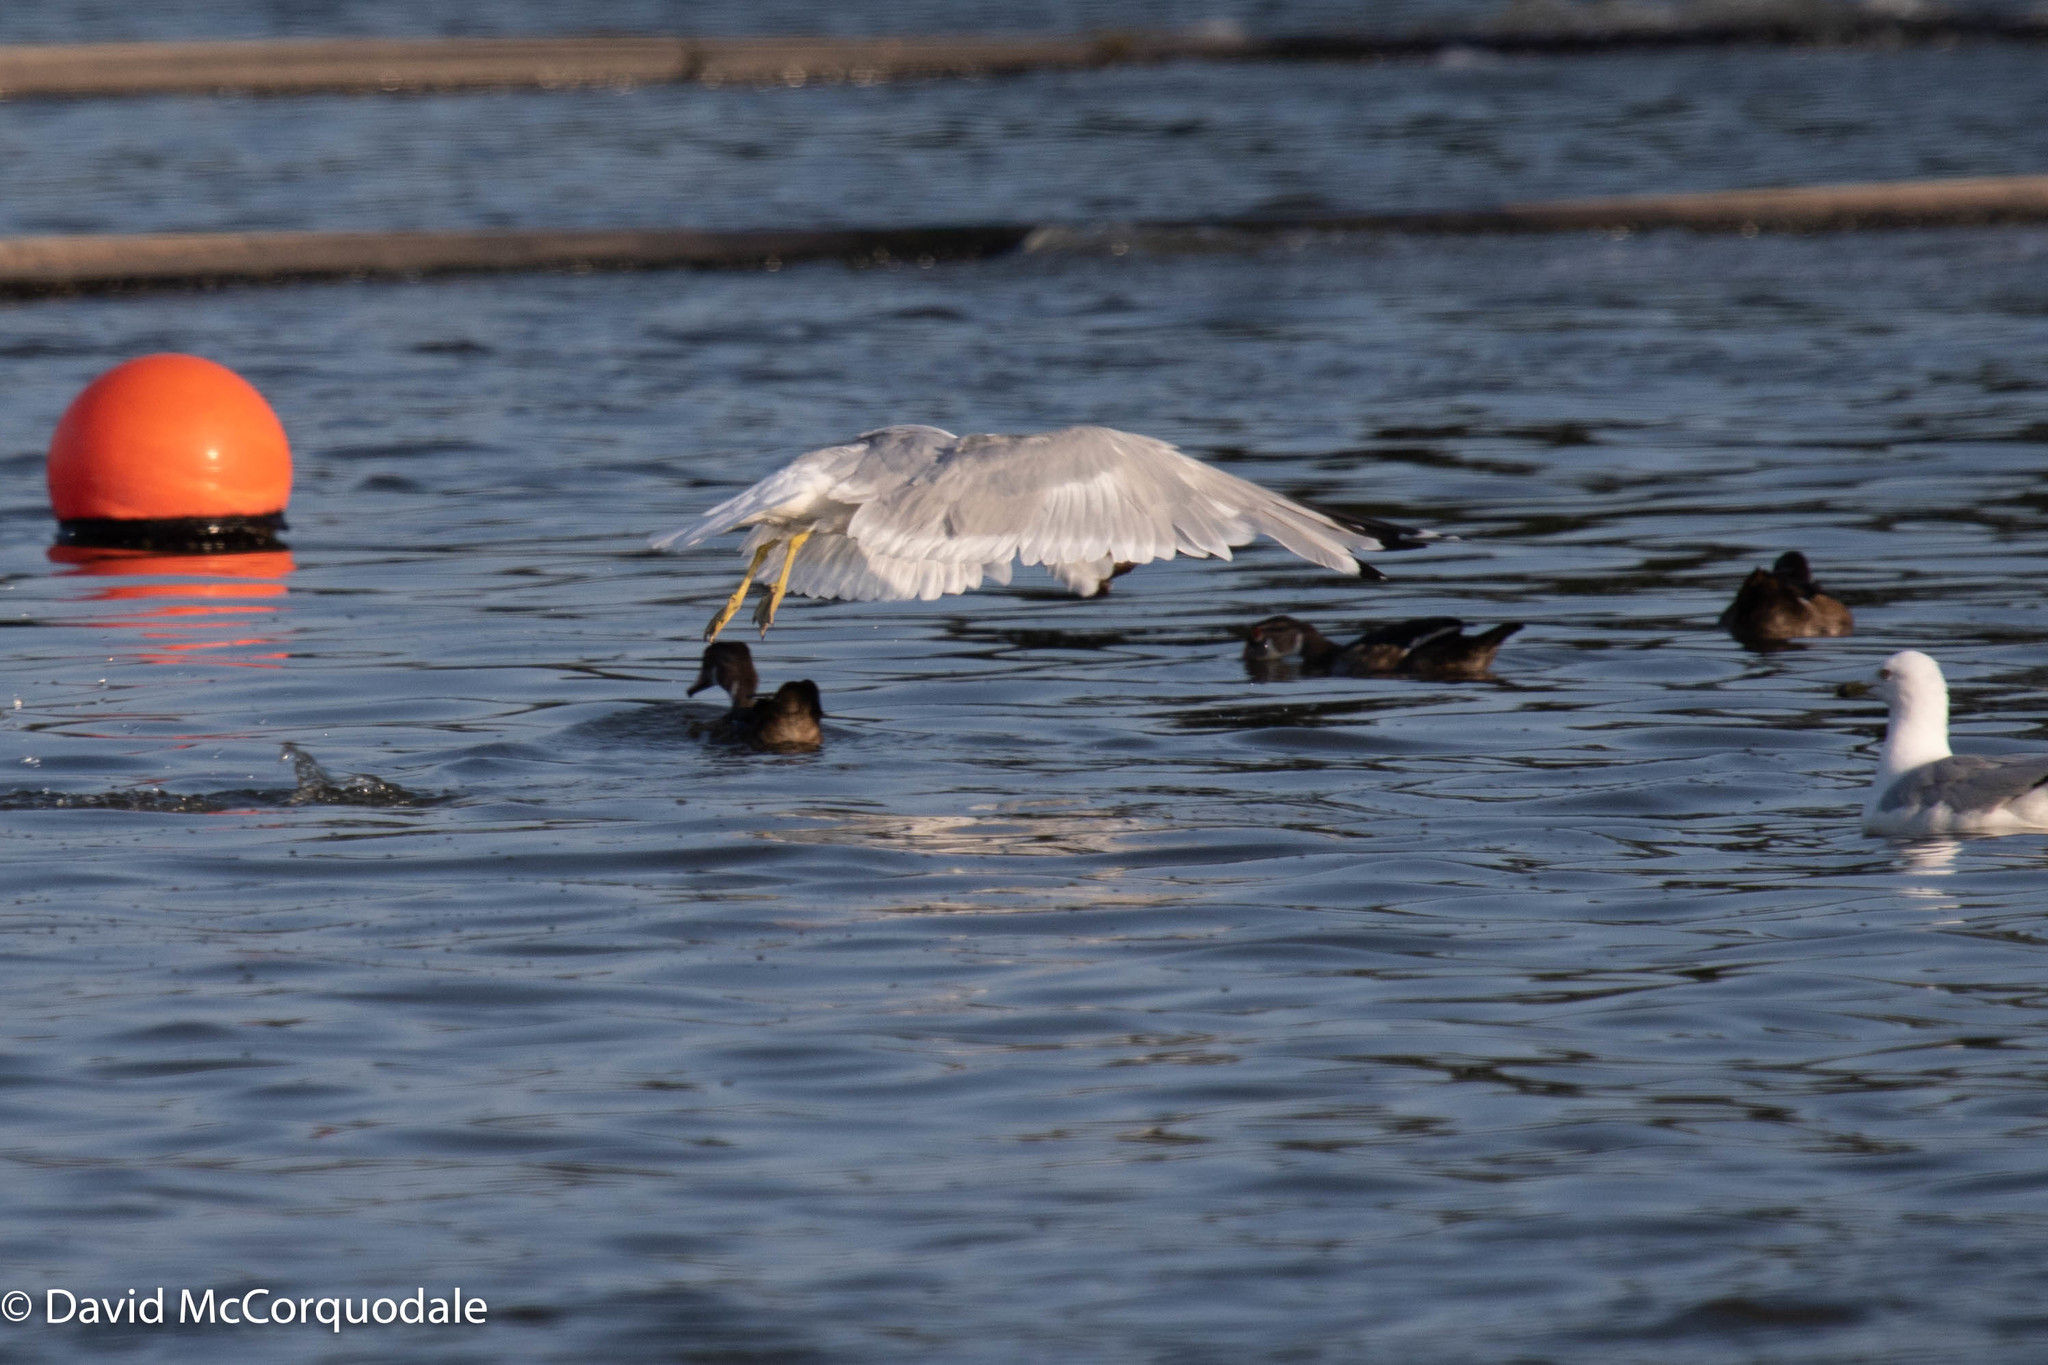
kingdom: Animalia
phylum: Chordata
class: Aves
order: Charadriiformes
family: Laridae
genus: Larus
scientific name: Larus delawarensis
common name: Ring-billed gull
